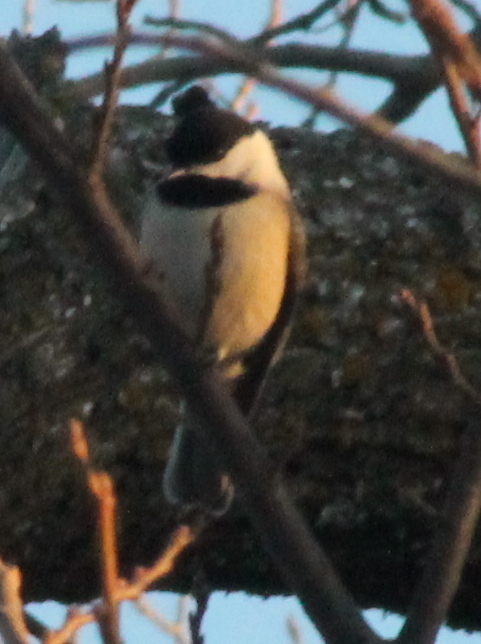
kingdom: Animalia
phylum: Chordata
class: Aves
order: Passeriformes
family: Paridae
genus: Poecile
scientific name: Poecile carolinensis
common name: Carolina chickadee
